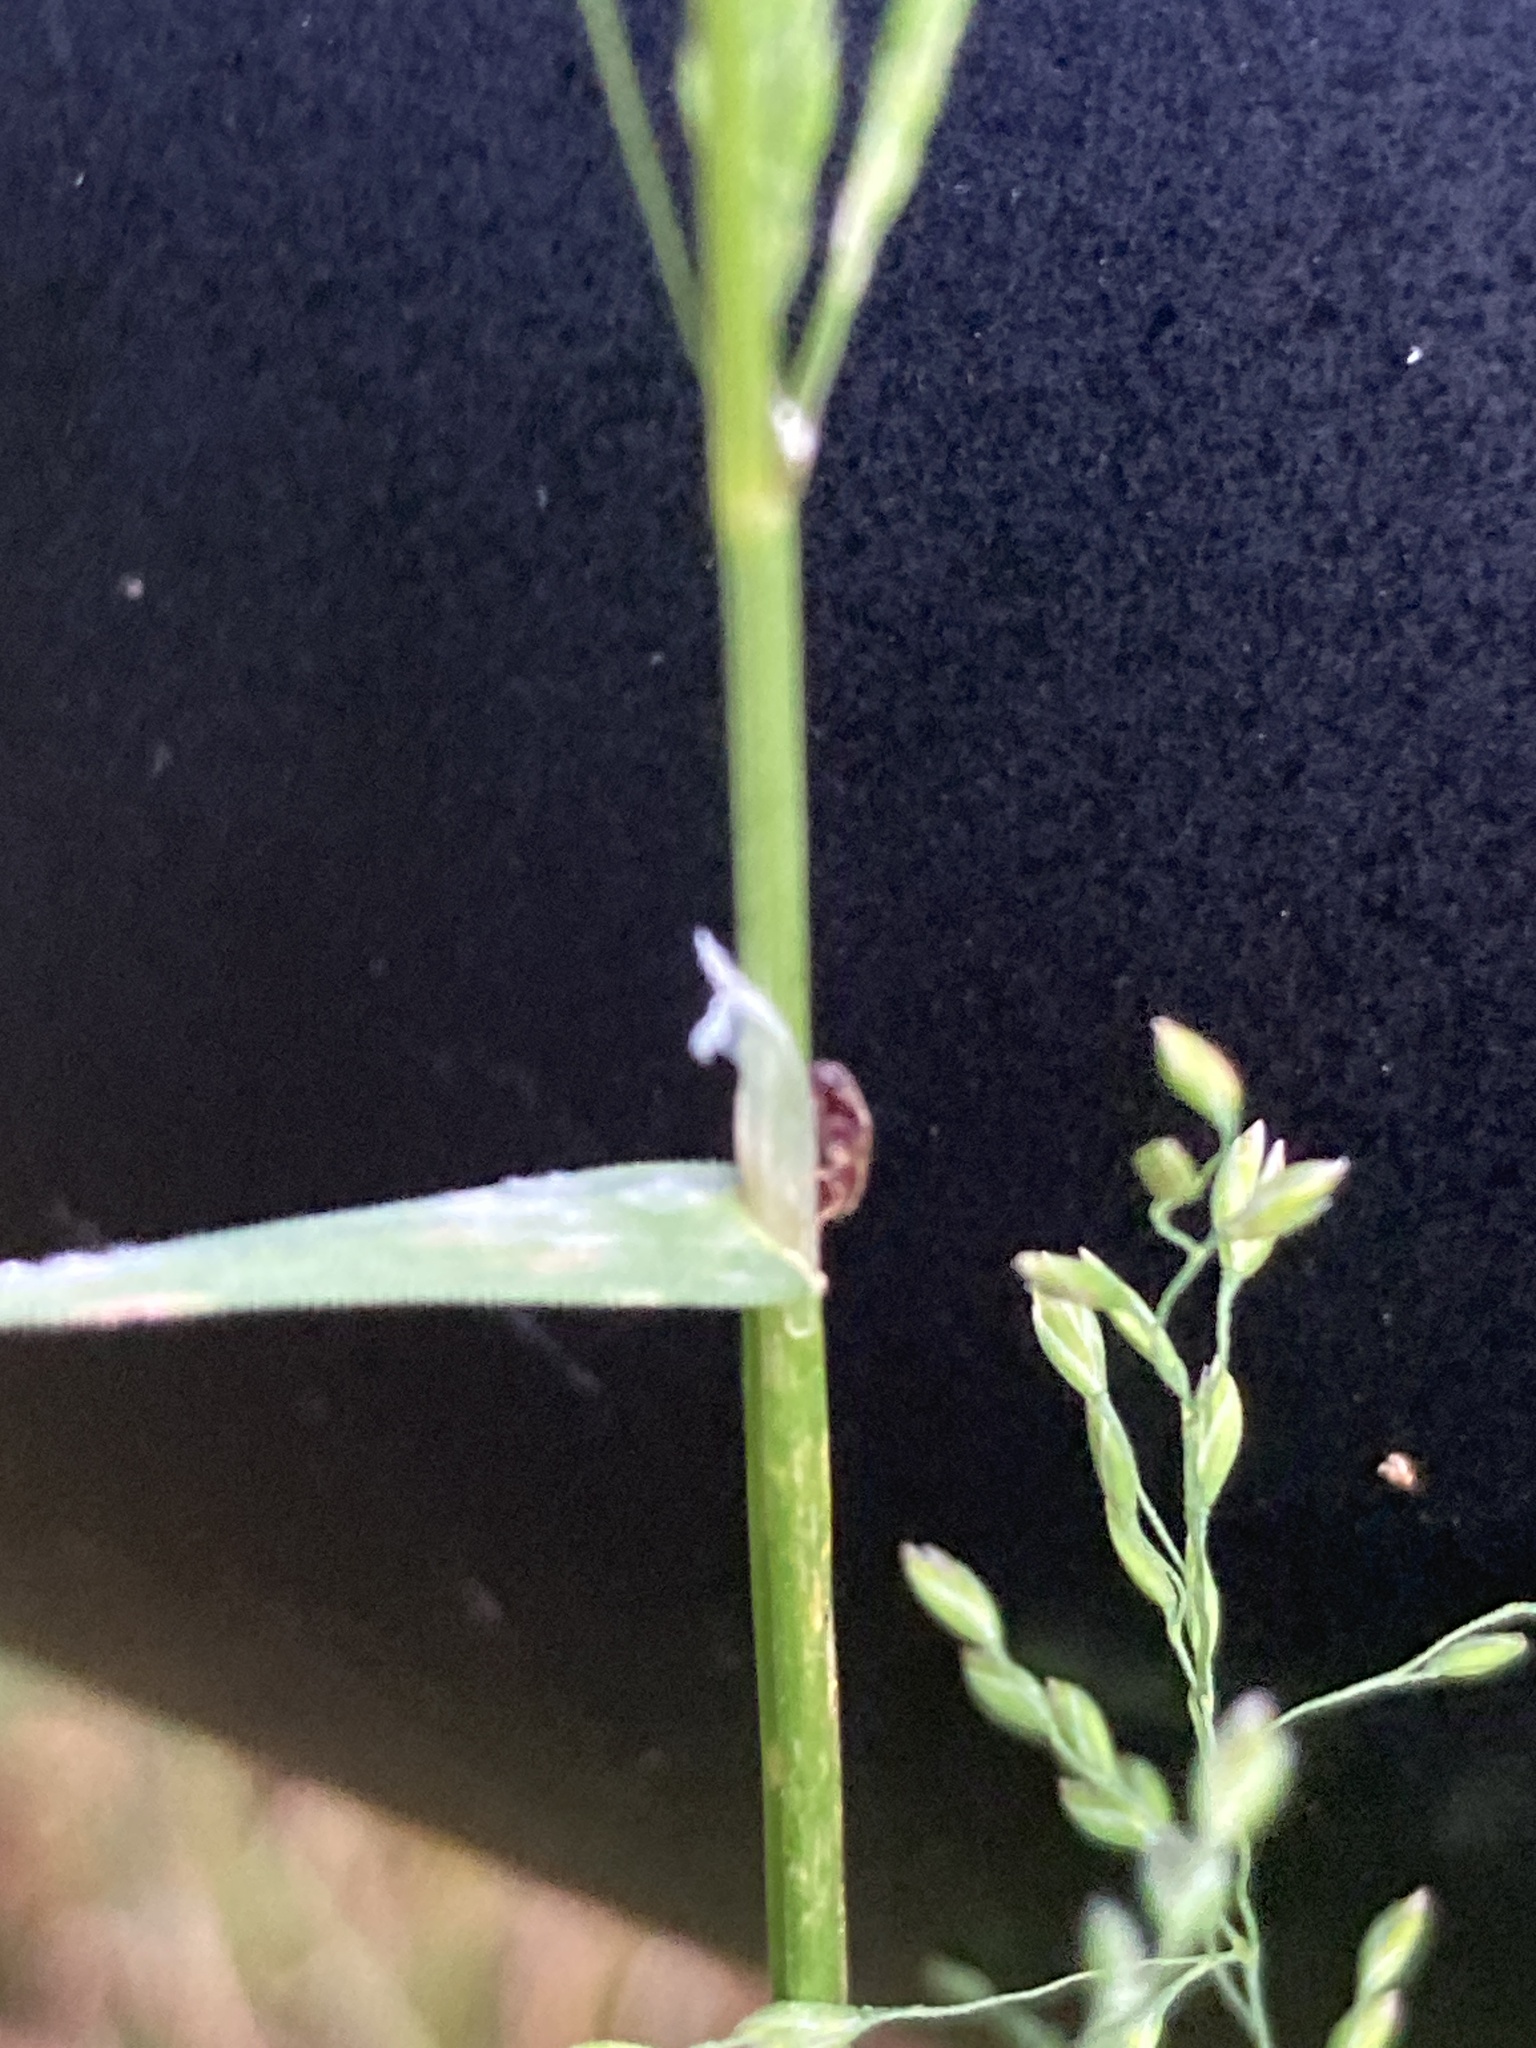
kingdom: Plantae
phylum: Tracheophyta
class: Liliopsida
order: Poales
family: Poaceae
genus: Poa
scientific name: Poa trivialis
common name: Rough bluegrass
